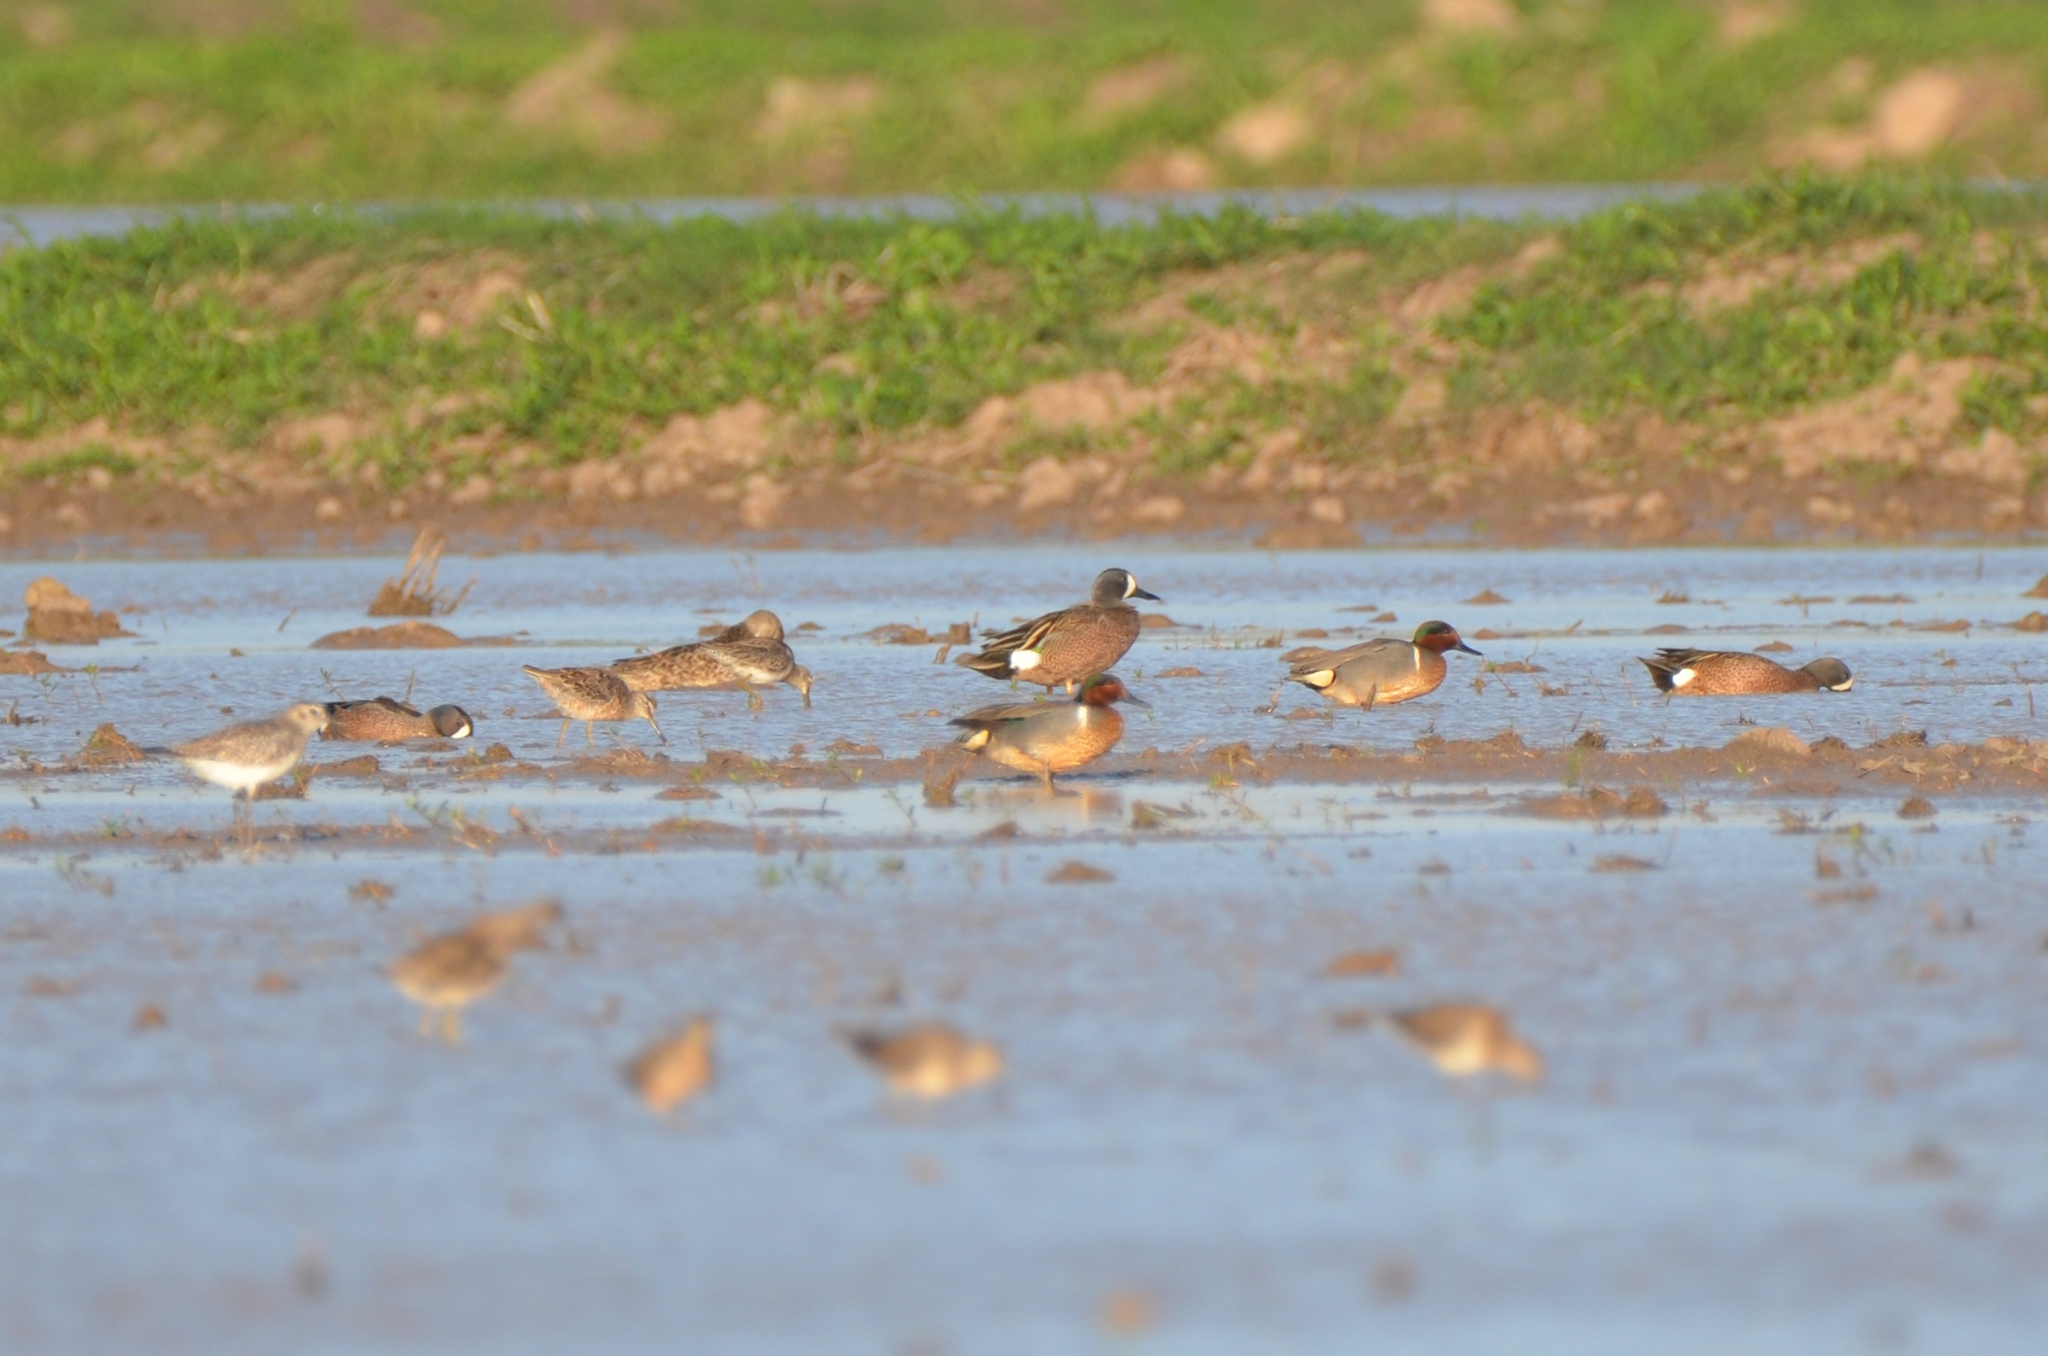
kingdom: Animalia
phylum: Chordata
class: Aves
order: Anseriformes
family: Anatidae
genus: Anas
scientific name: Anas crecca
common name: Eurasian teal
